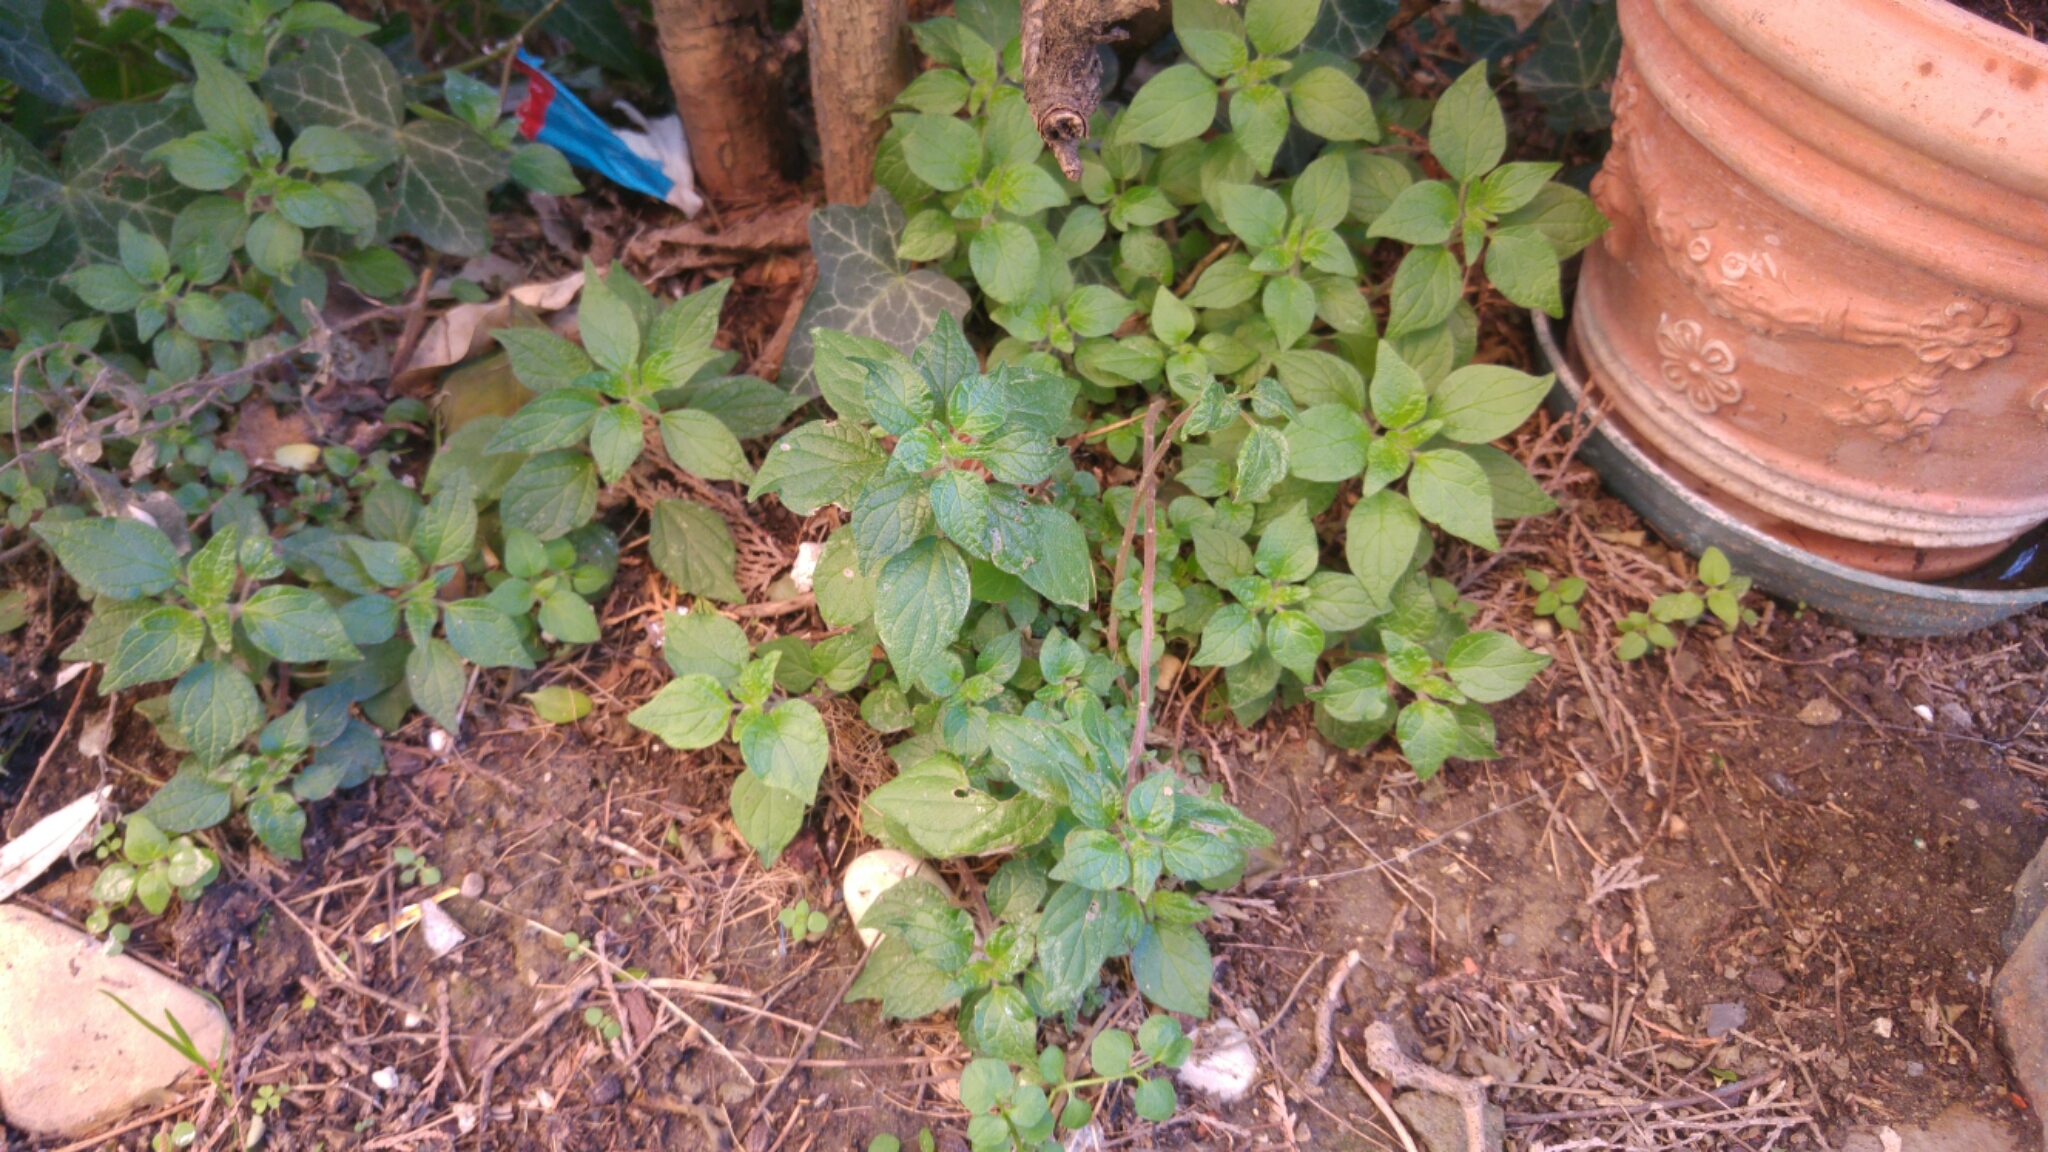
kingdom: Plantae
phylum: Tracheophyta
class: Magnoliopsida
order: Rosales
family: Urticaceae
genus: Parietaria
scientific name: Parietaria officinalis
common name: Eastern pellitory-of-the-wall
